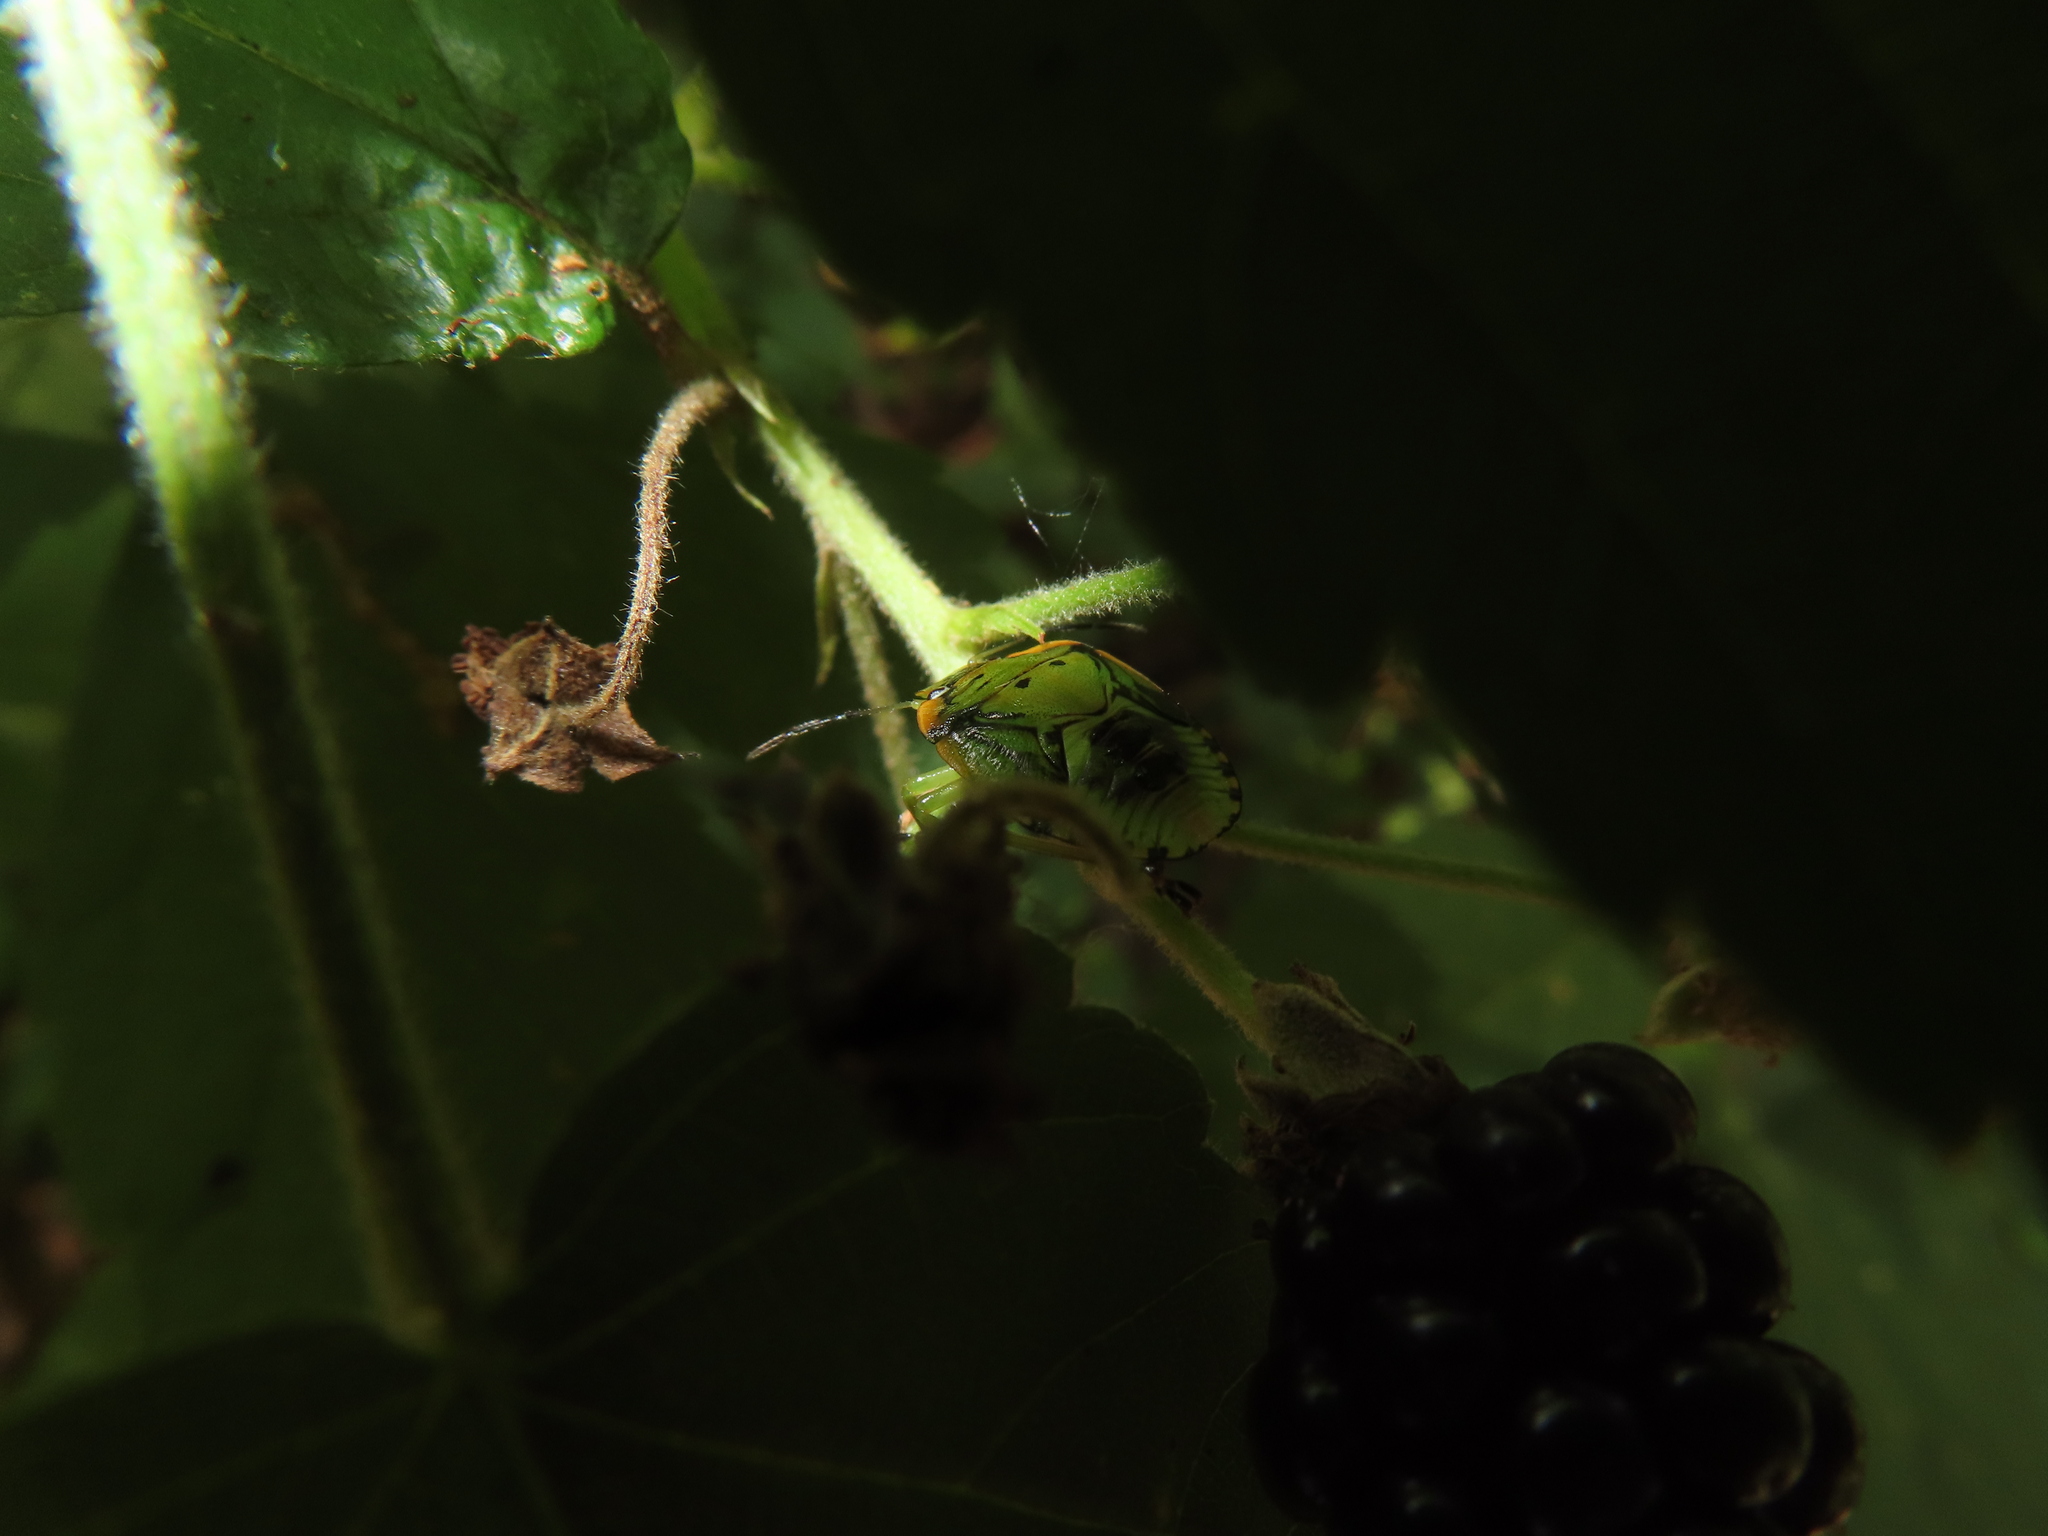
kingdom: Animalia
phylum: Arthropoda
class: Insecta
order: Hemiptera
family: Pentatomidae
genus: Chinavia
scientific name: Chinavia hilaris
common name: Green stink bug
